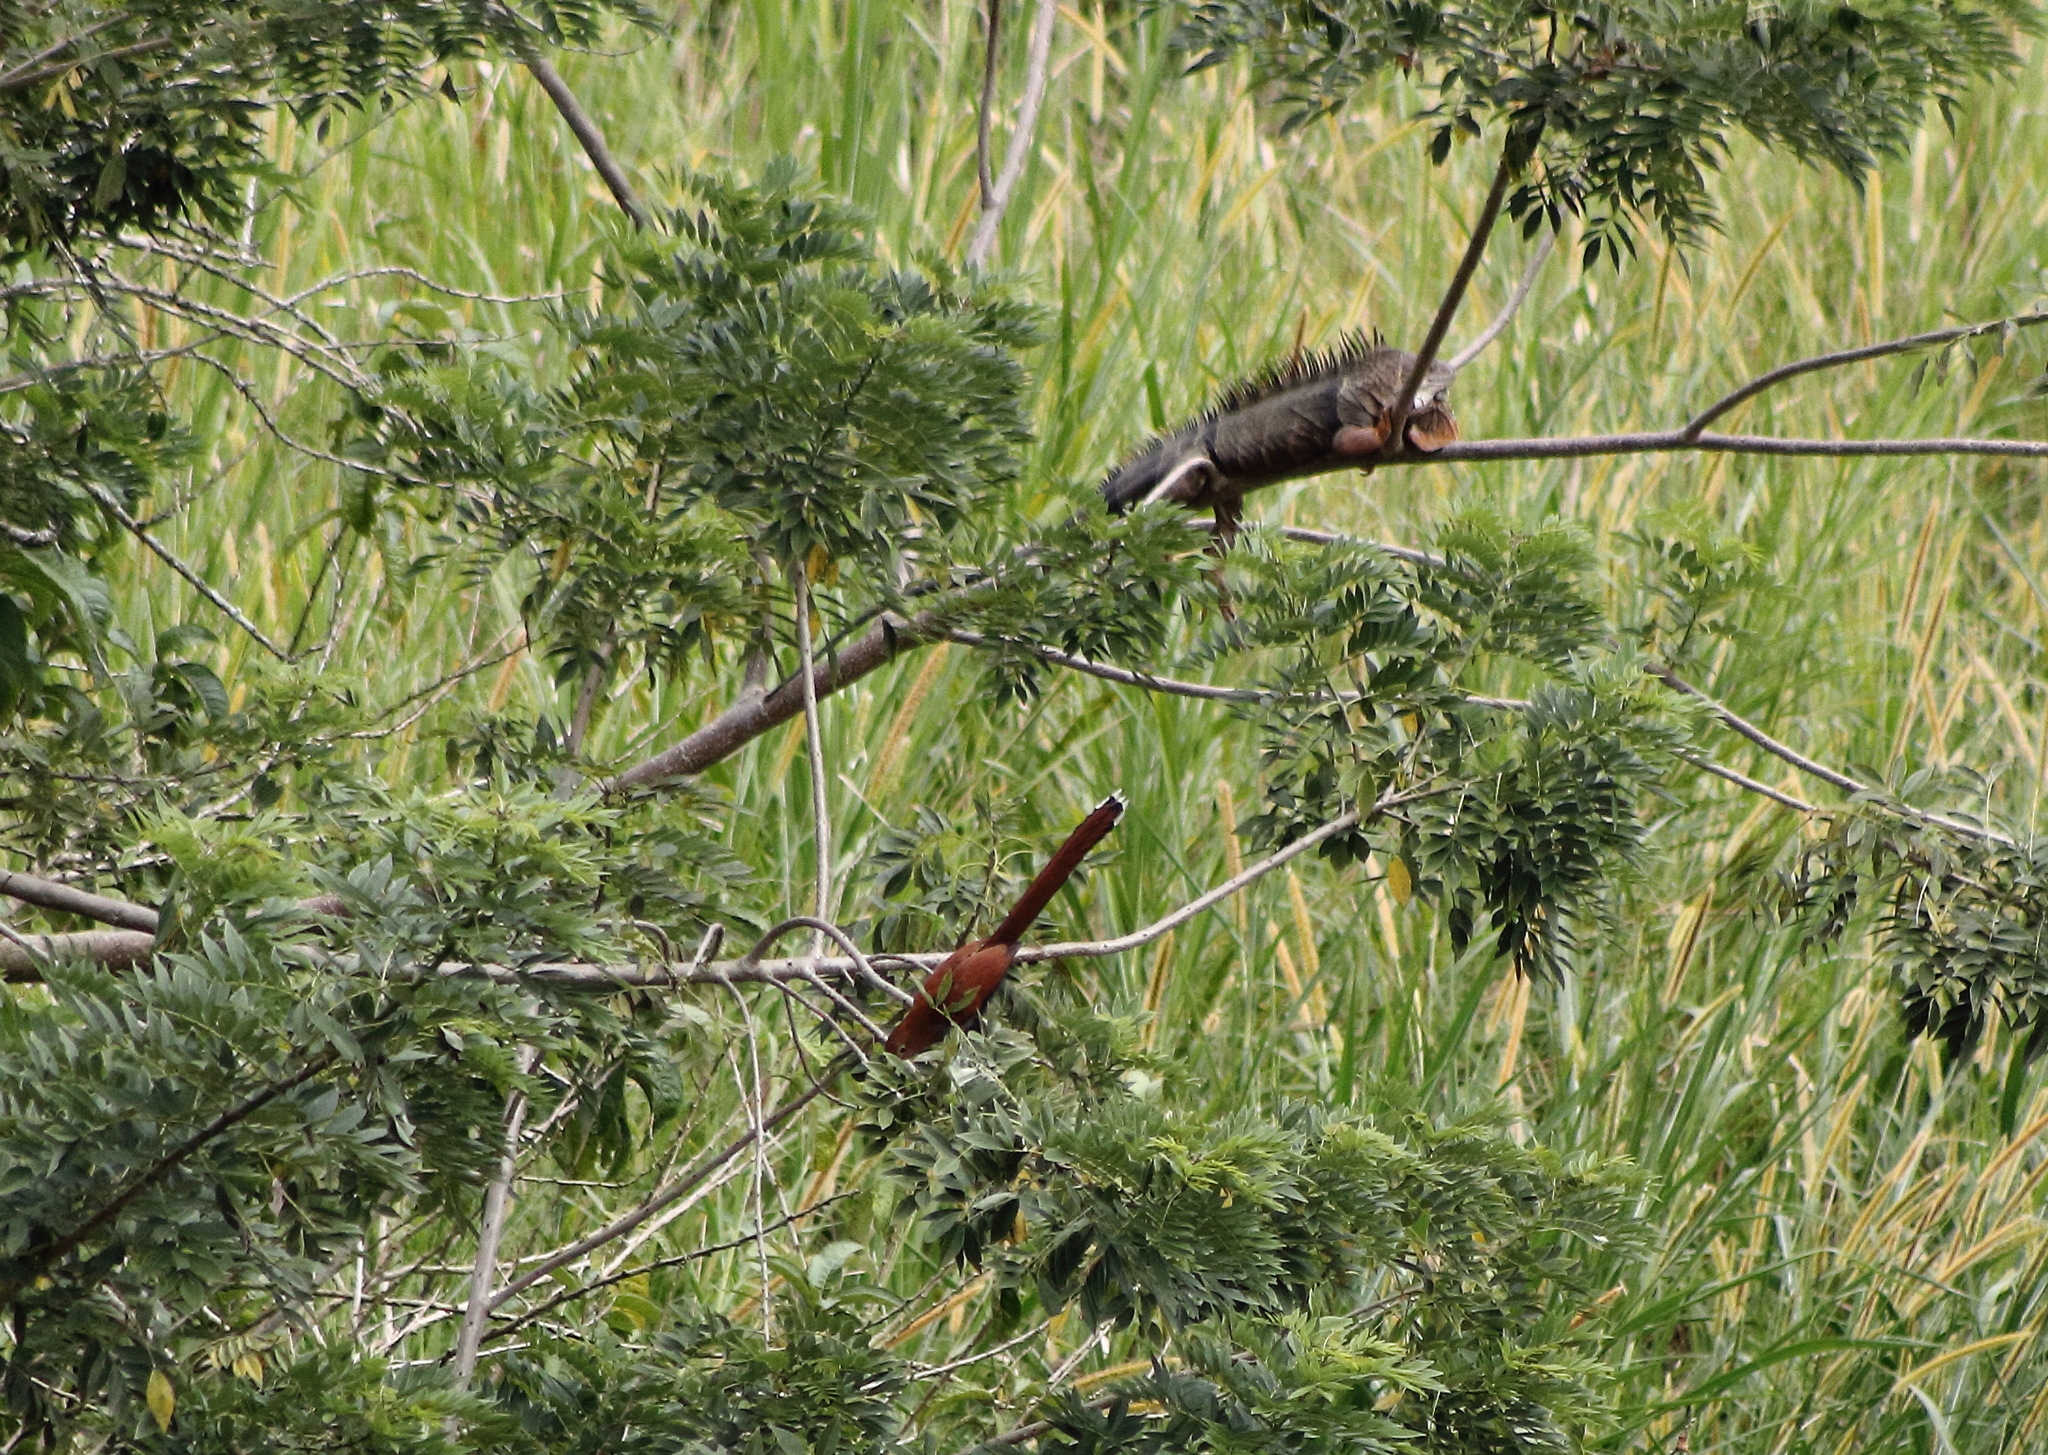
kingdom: Animalia
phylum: Chordata
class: Aves
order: Cuculiformes
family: Cuculidae
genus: Piaya
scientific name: Piaya cayana
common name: Squirrel cuckoo
